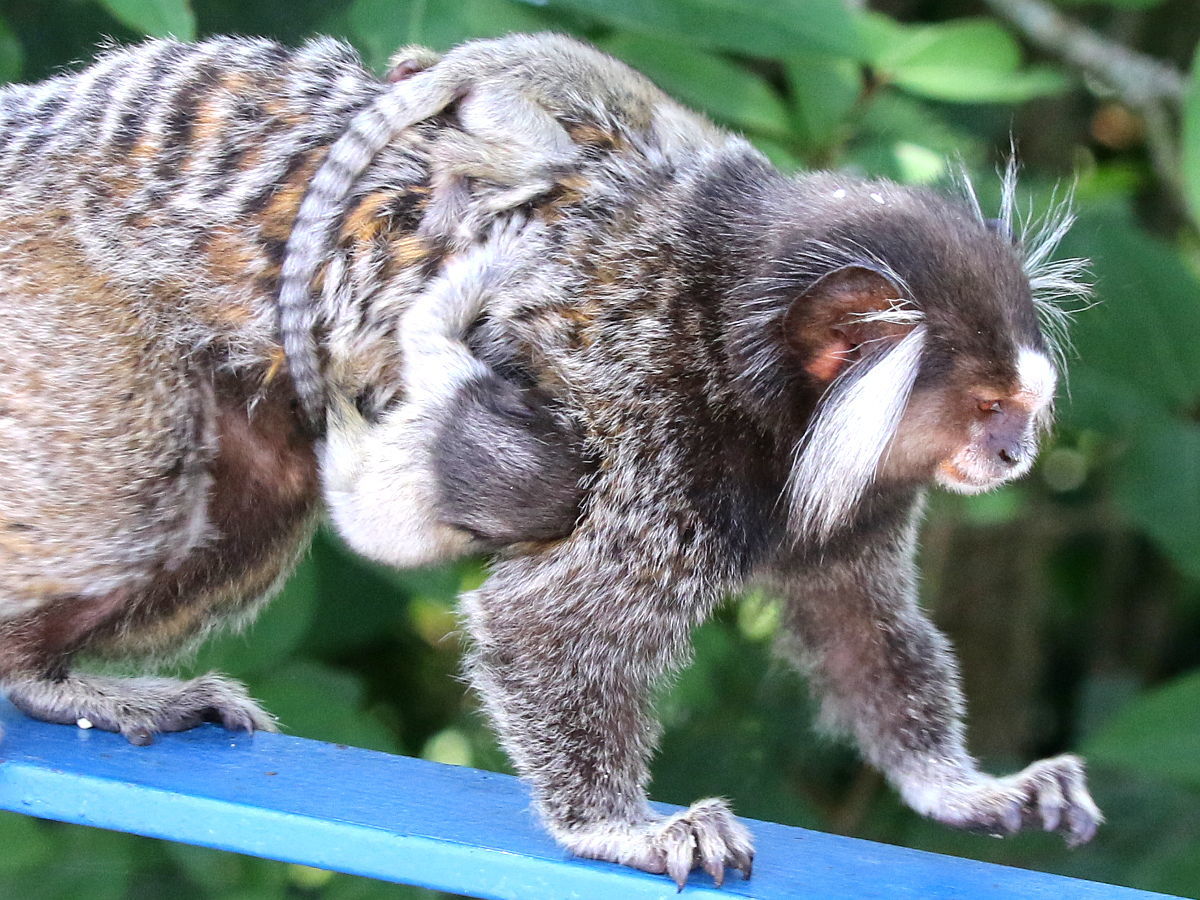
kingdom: Animalia
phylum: Chordata
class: Mammalia
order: Primates
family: Callitrichidae
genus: Callithrix
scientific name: Callithrix jacchus
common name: Common marmoset
